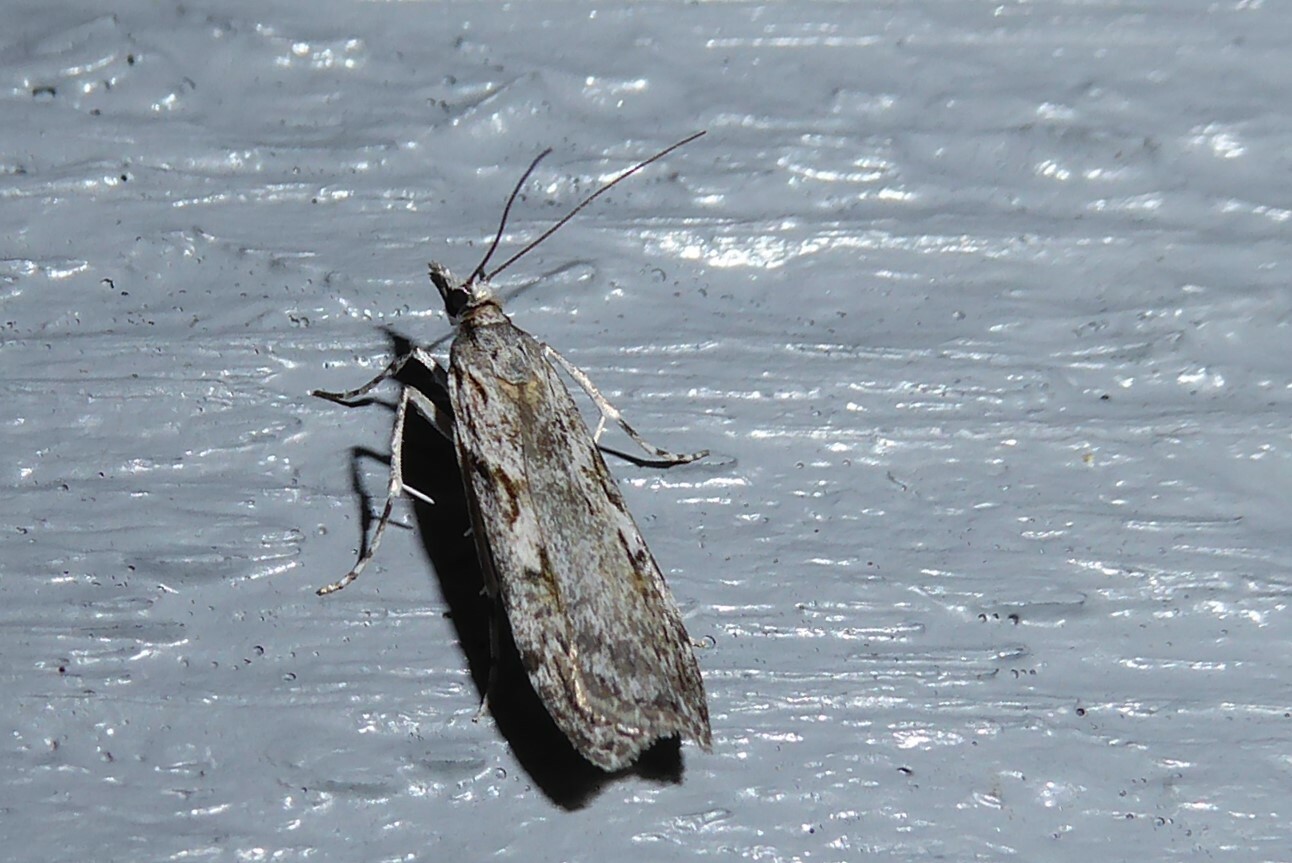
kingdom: Animalia
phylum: Arthropoda
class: Insecta
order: Lepidoptera
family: Crambidae
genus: Scoparia
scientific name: Scoparia halopis
